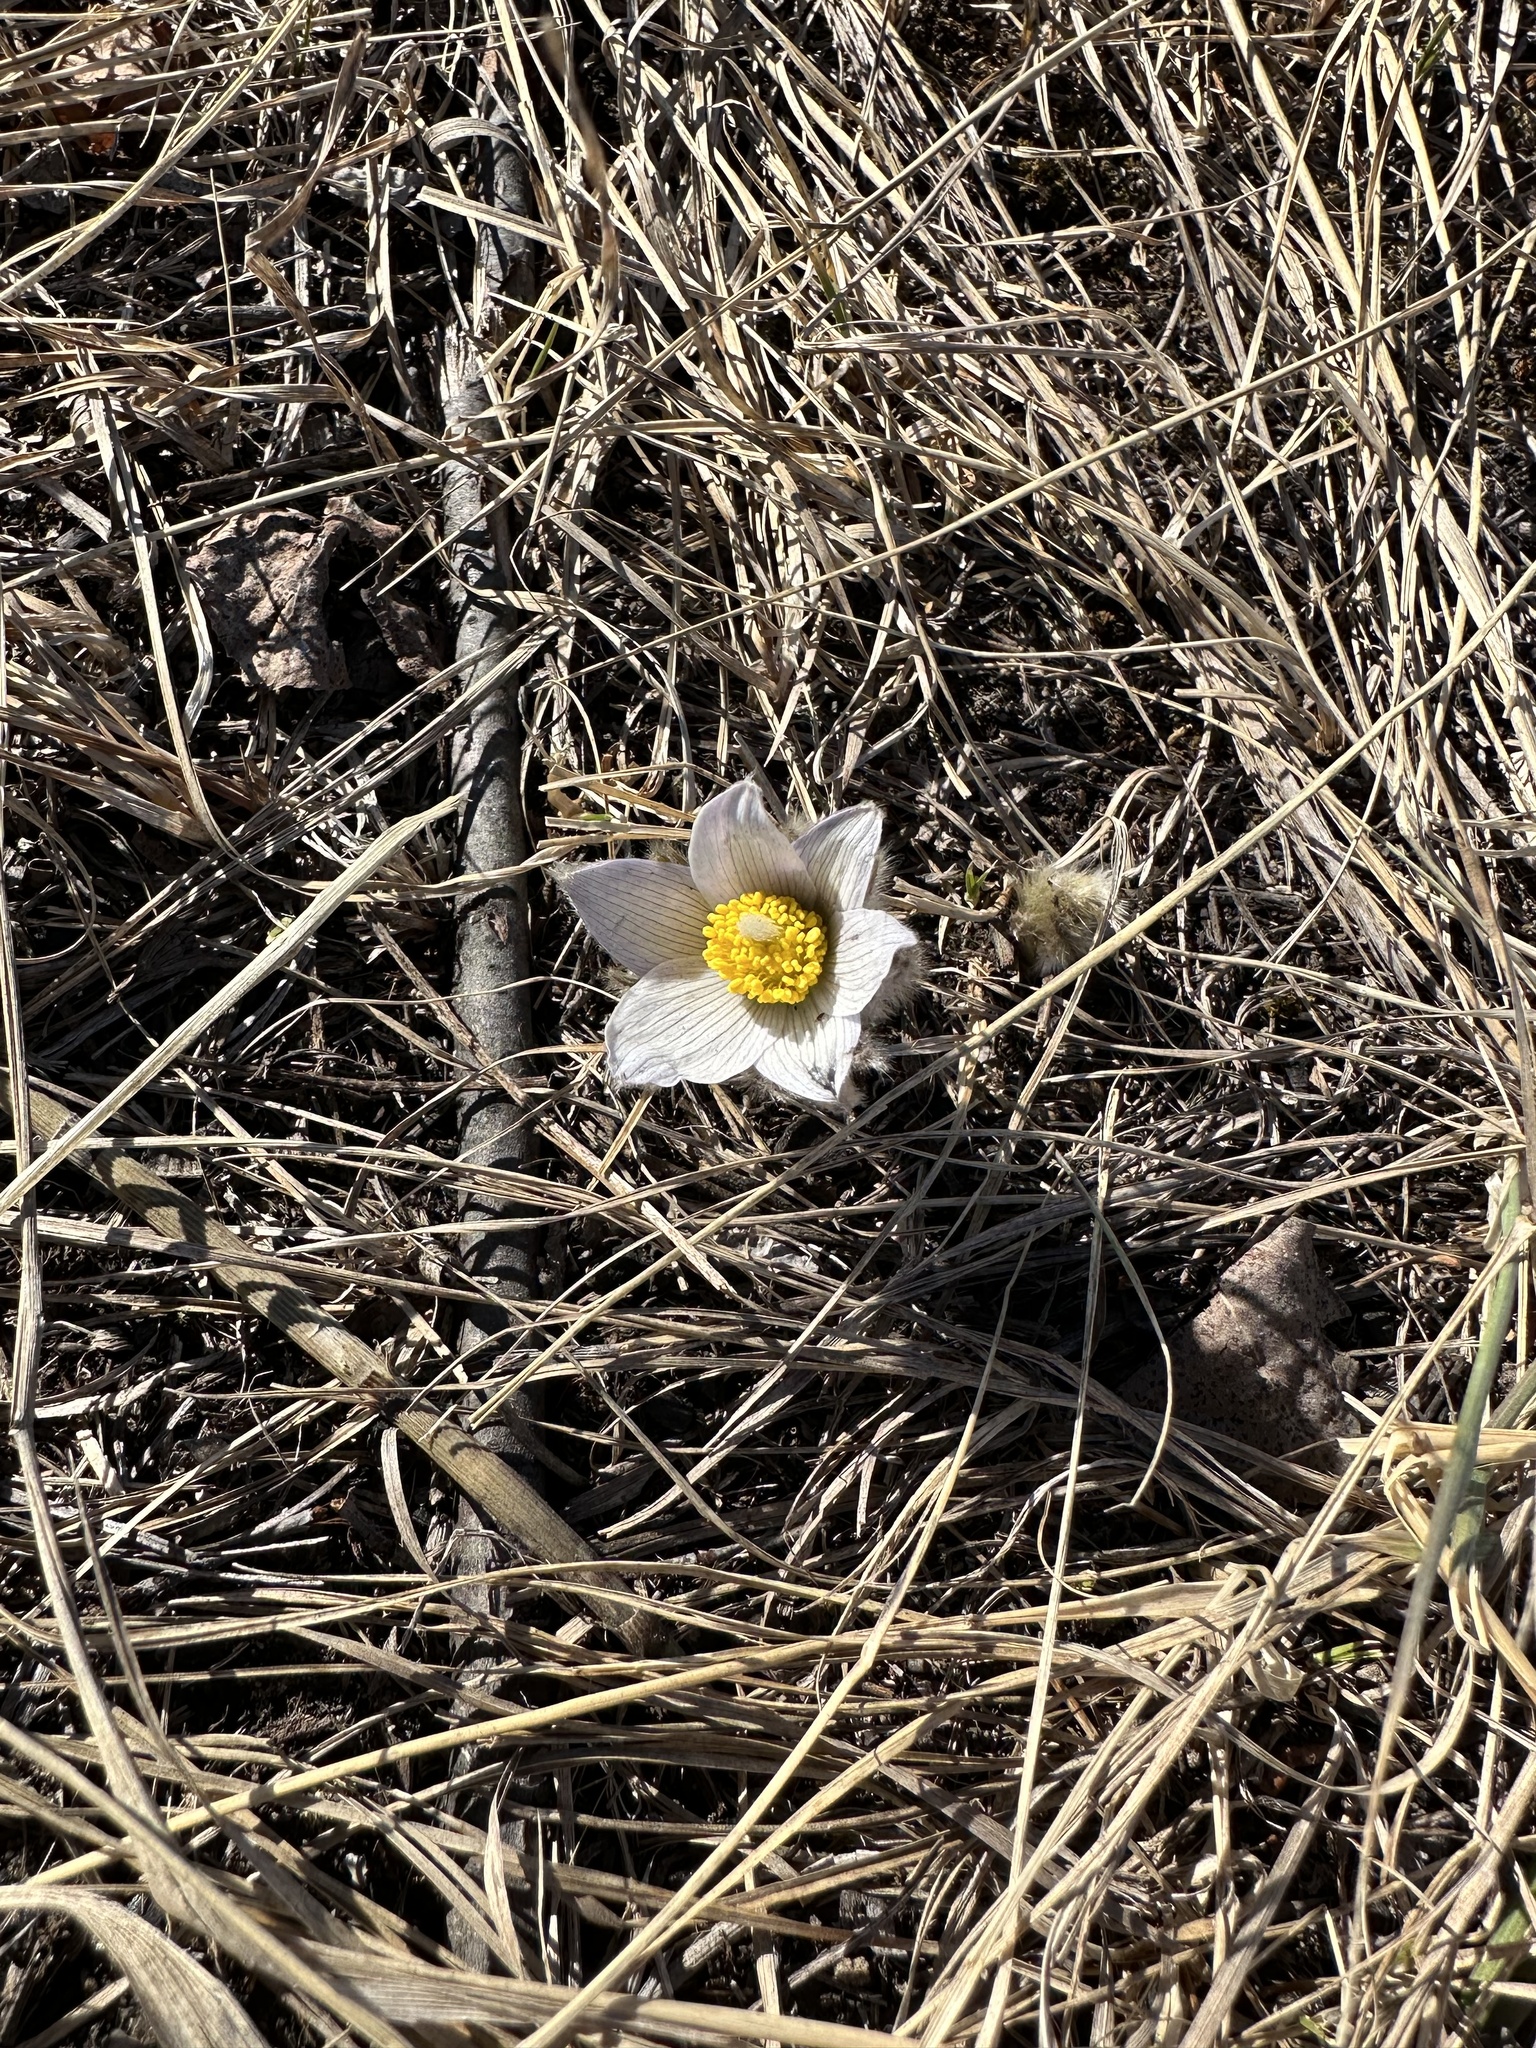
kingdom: Plantae
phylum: Tracheophyta
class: Magnoliopsida
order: Ranunculales
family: Ranunculaceae
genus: Pulsatilla
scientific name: Pulsatilla nuttalliana
